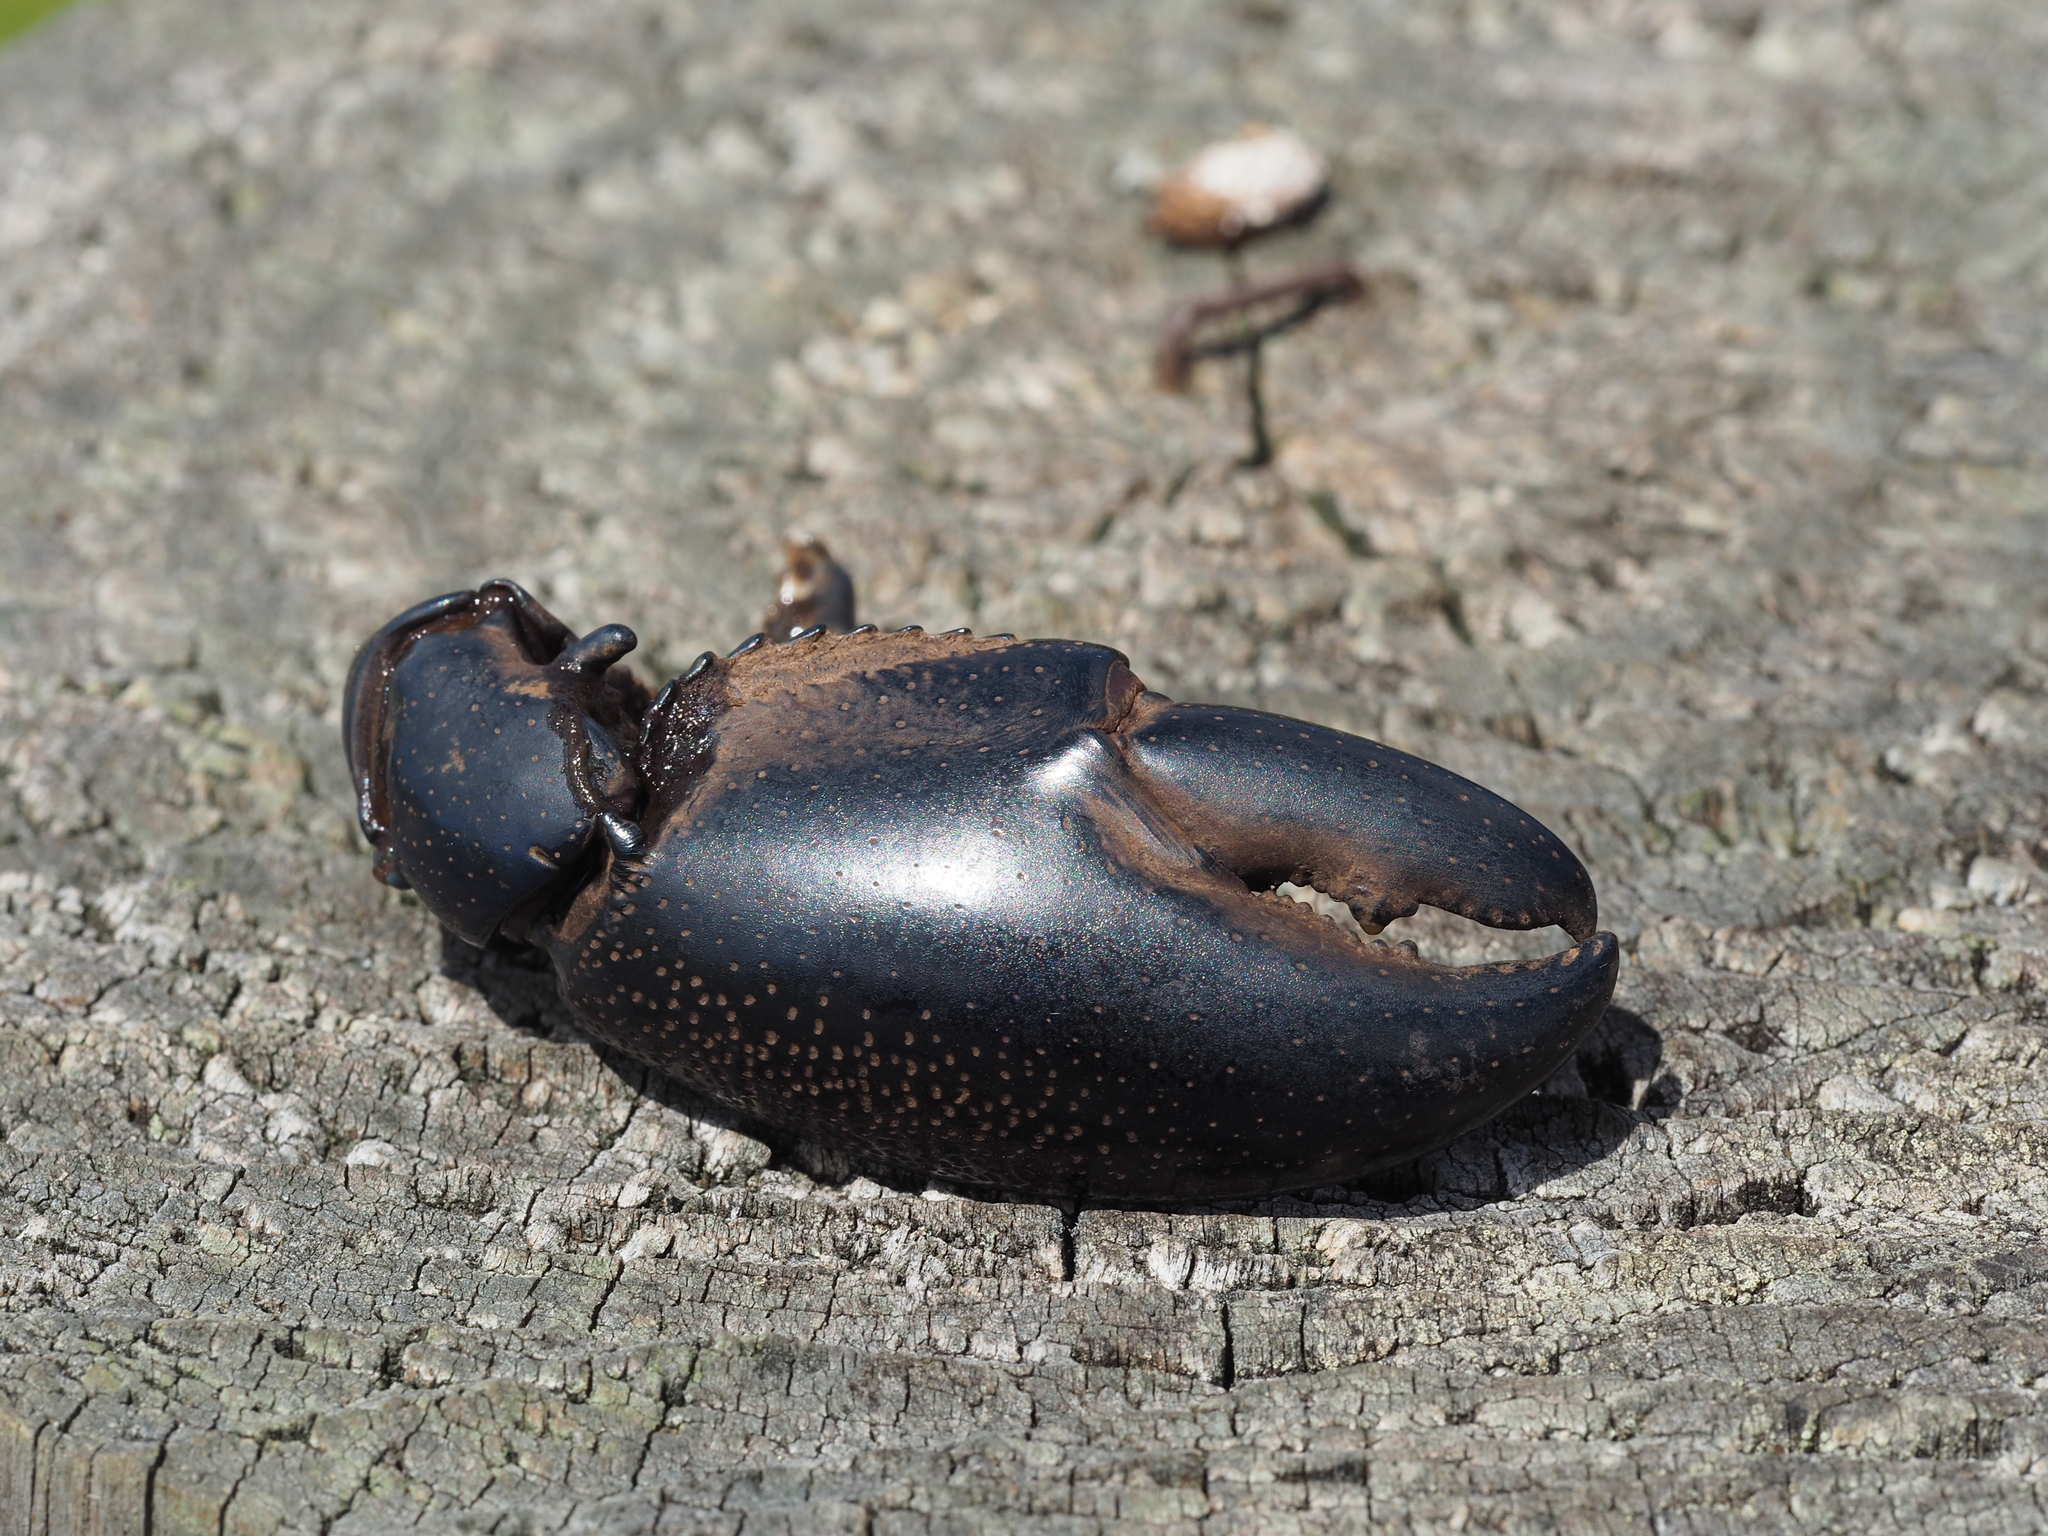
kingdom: Animalia
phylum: Arthropoda
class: Malacostraca
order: Decapoda
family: Parastacidae
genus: Cherax
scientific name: Cherax preissii
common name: Koonac
